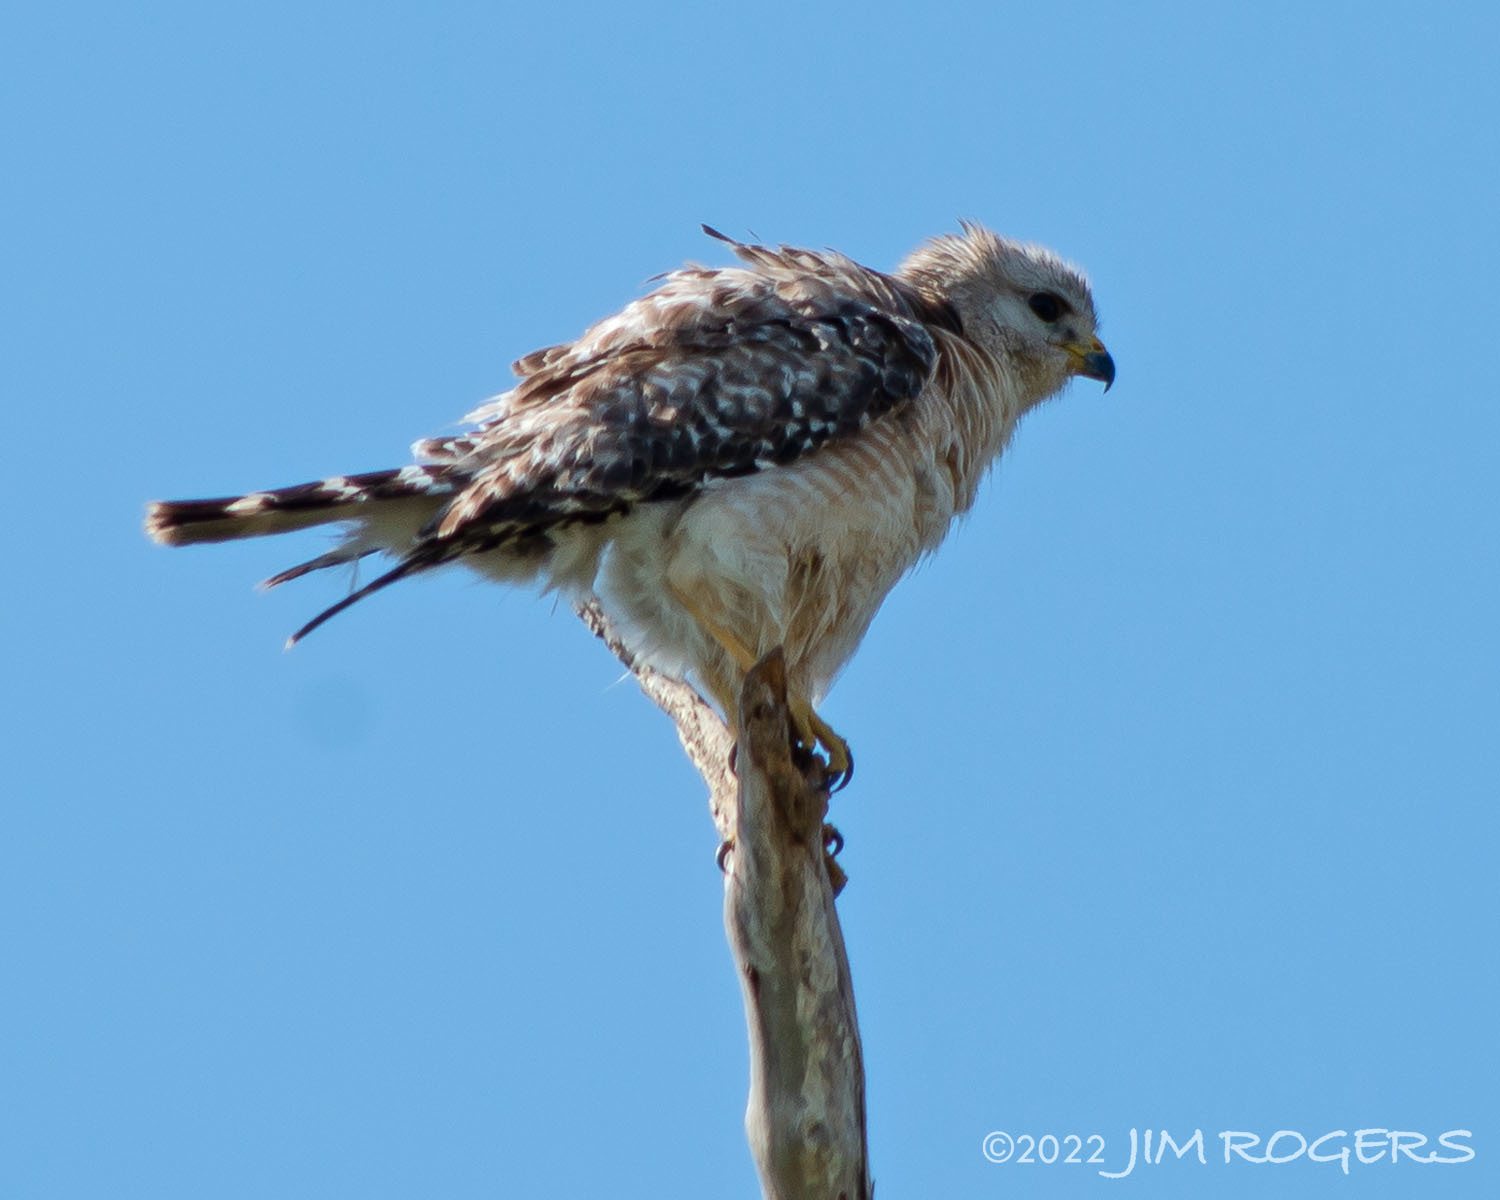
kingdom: Animalia
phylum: Chordata
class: Aves
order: Accipitriformes
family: Accipitridae
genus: Buteo
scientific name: Buteo lineatus
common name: Red-shouldered hawk
